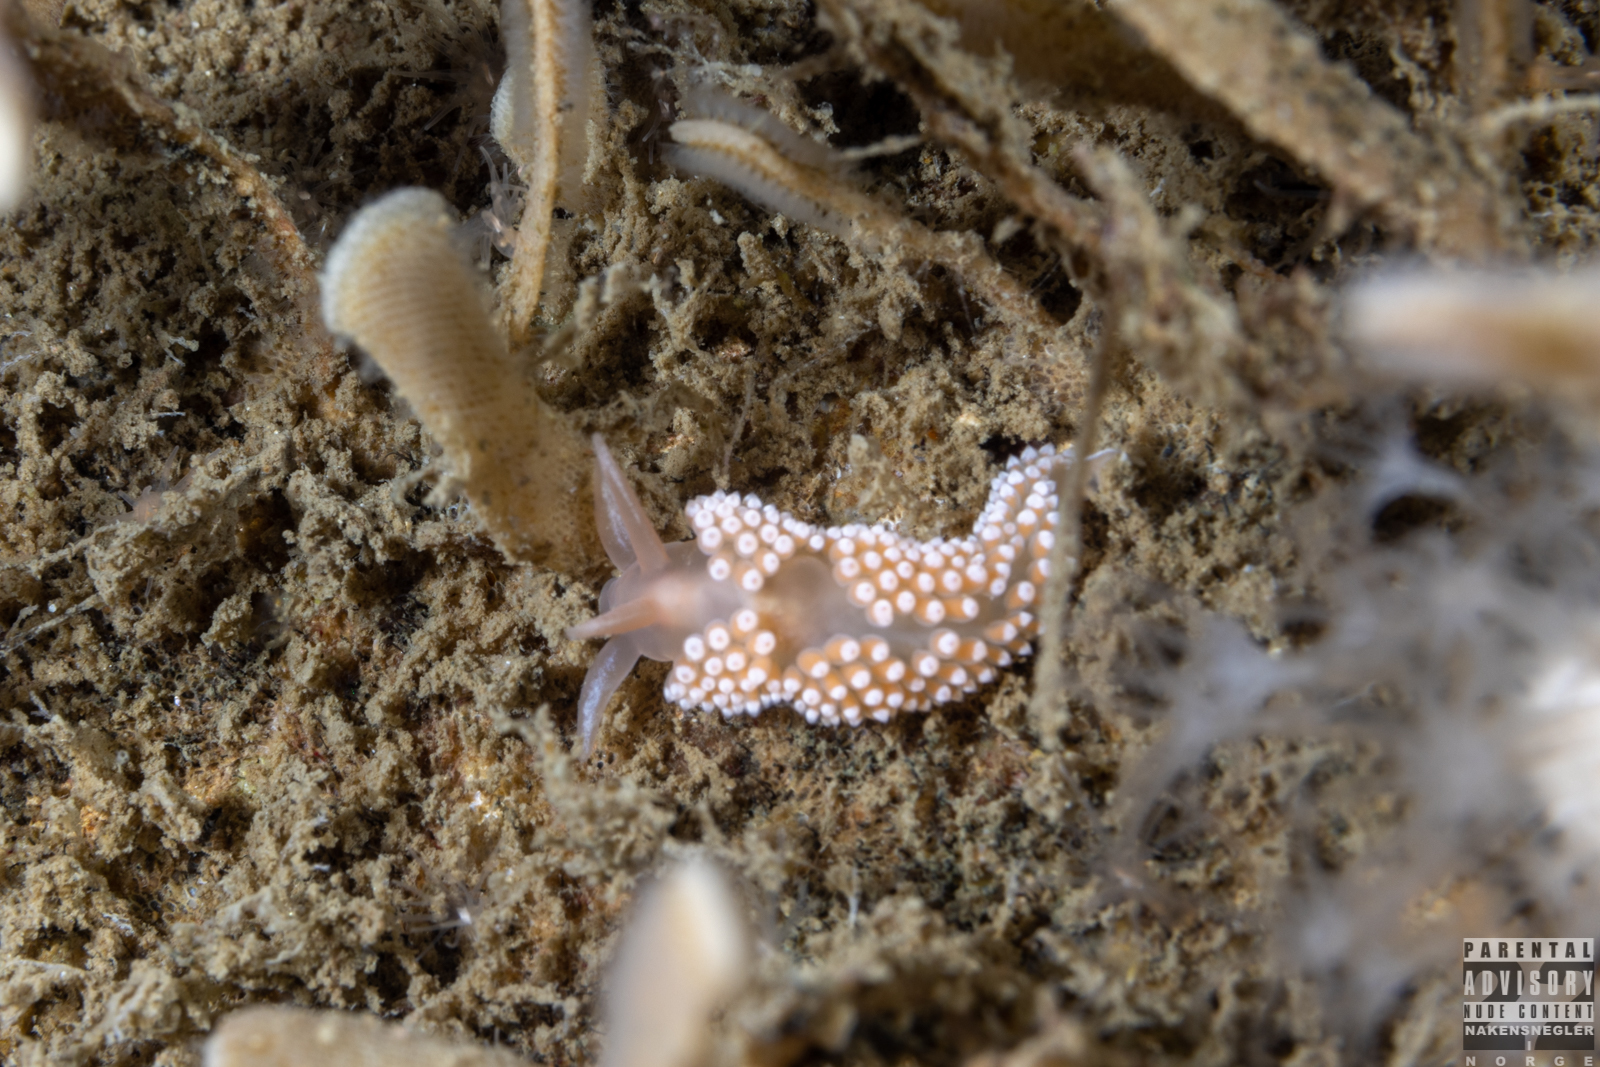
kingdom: Animalia
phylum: Mollusca
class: Gastropoda
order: Nudibranchia
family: Coryphellidae
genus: Coryphella
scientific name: Coryphella verrucosa
